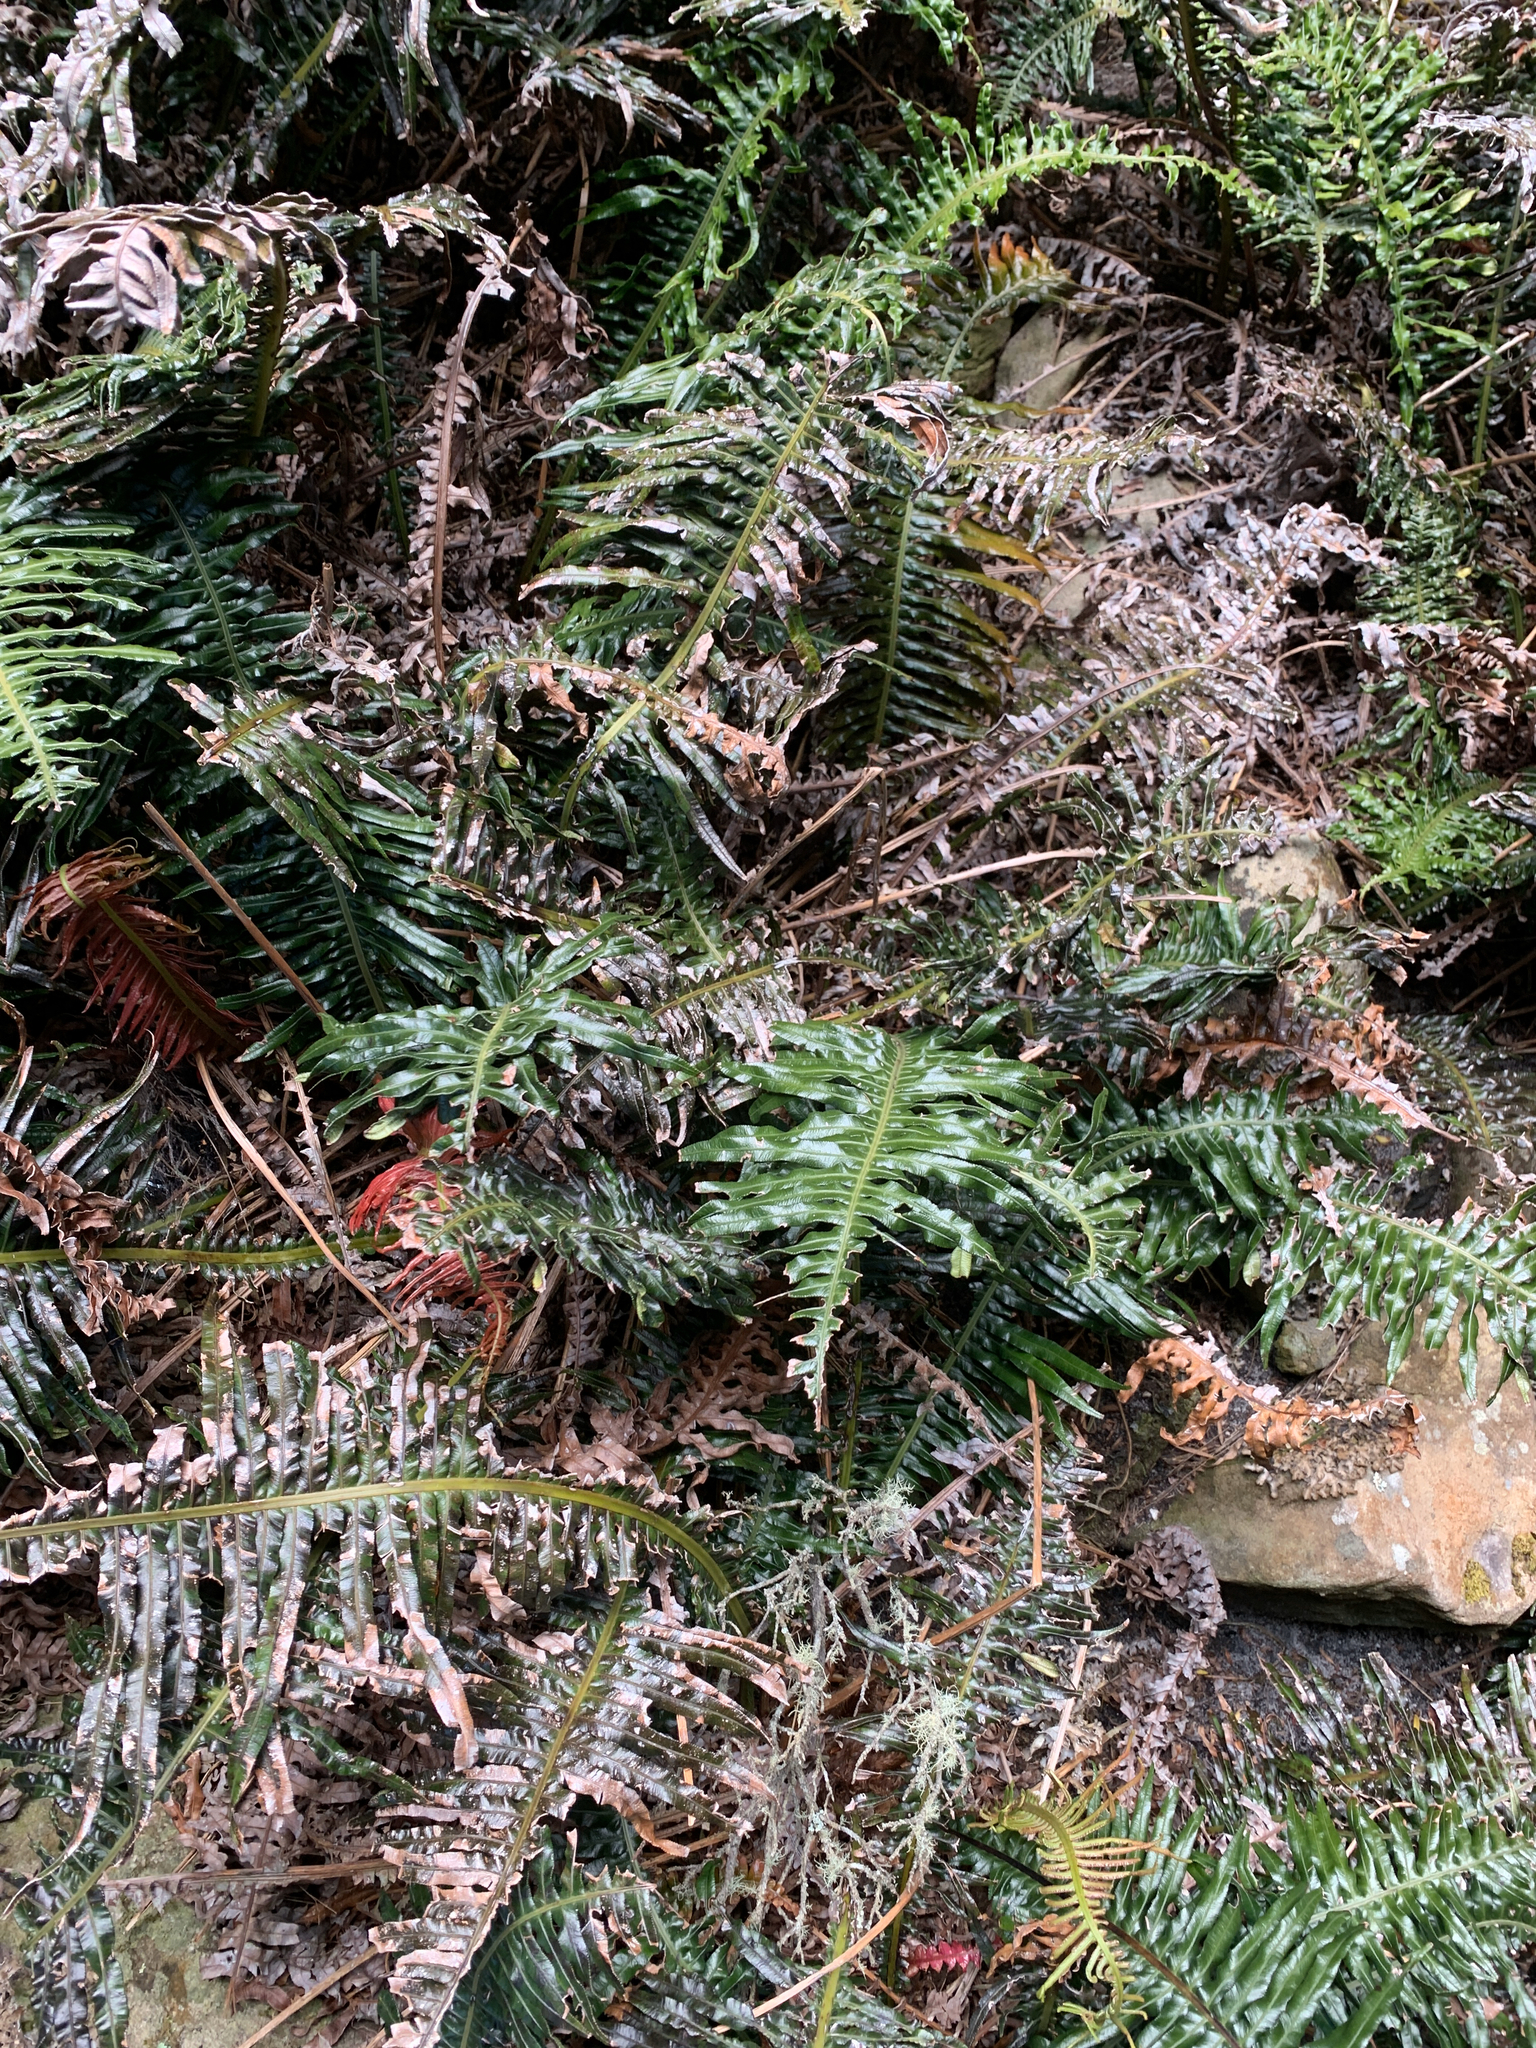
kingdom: Plantae
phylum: Tracheophyta
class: Polypodiopsida
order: Polypodiales
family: Blechnaceae
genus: Lomaridium
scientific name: Lomaridium attenuatum
